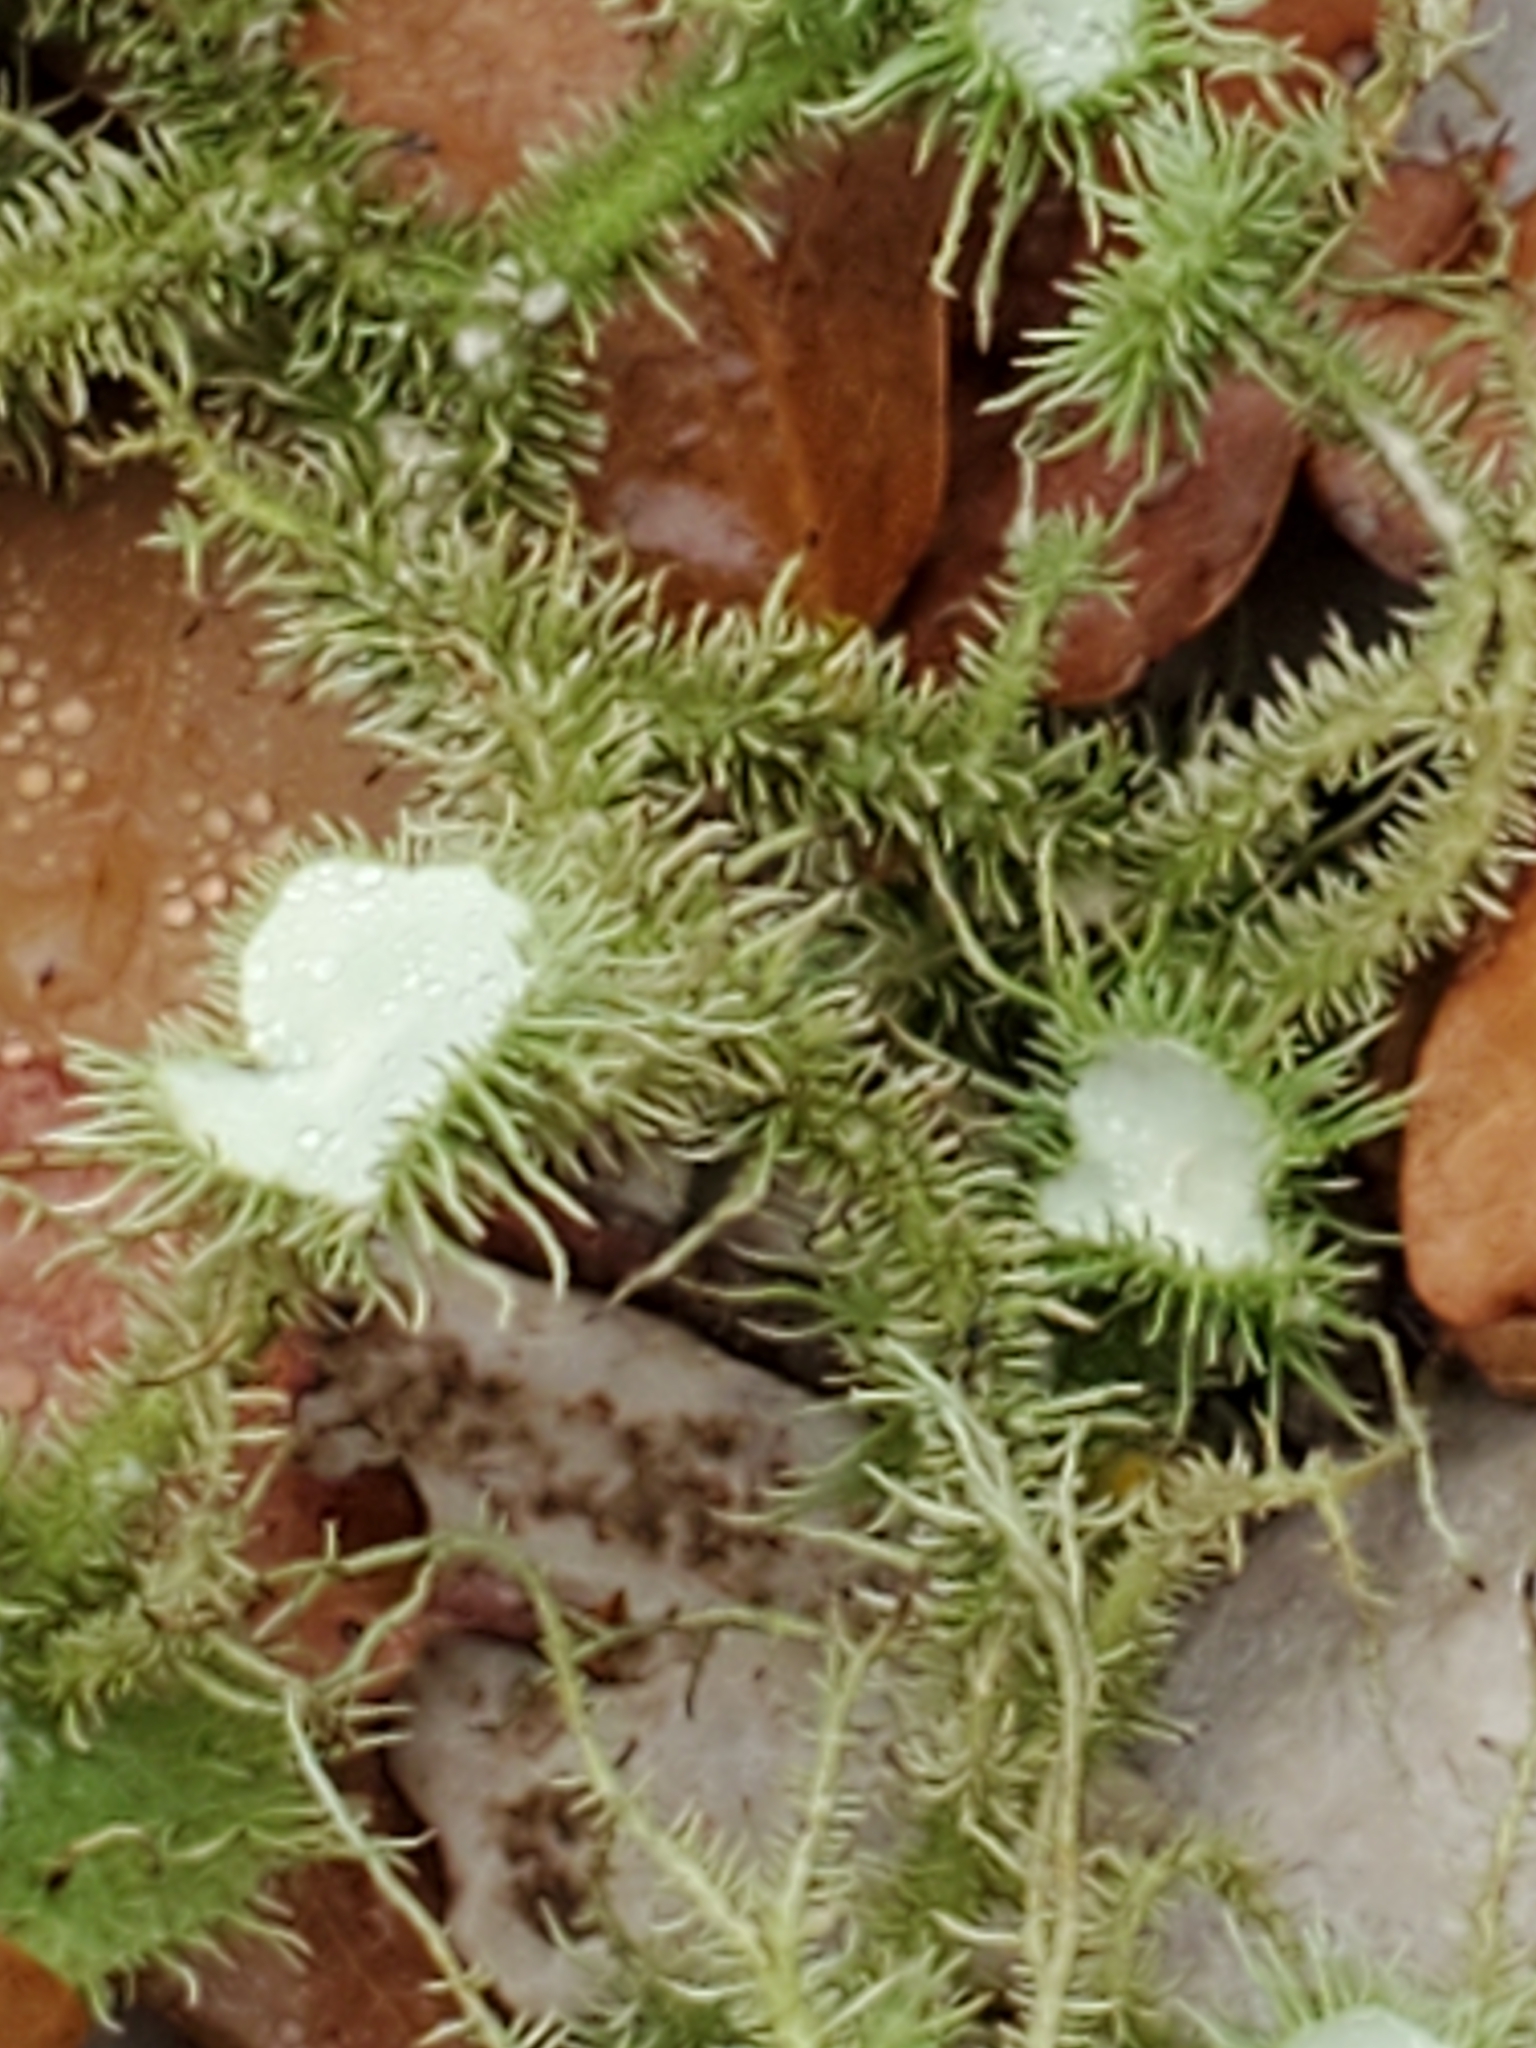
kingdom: Fungi
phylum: Ascomycota
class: Lecanoromycetes
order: Lecanorales
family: Parmeliaceae
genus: Usnea
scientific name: Usnea strigosa
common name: Bushy beard lichen
